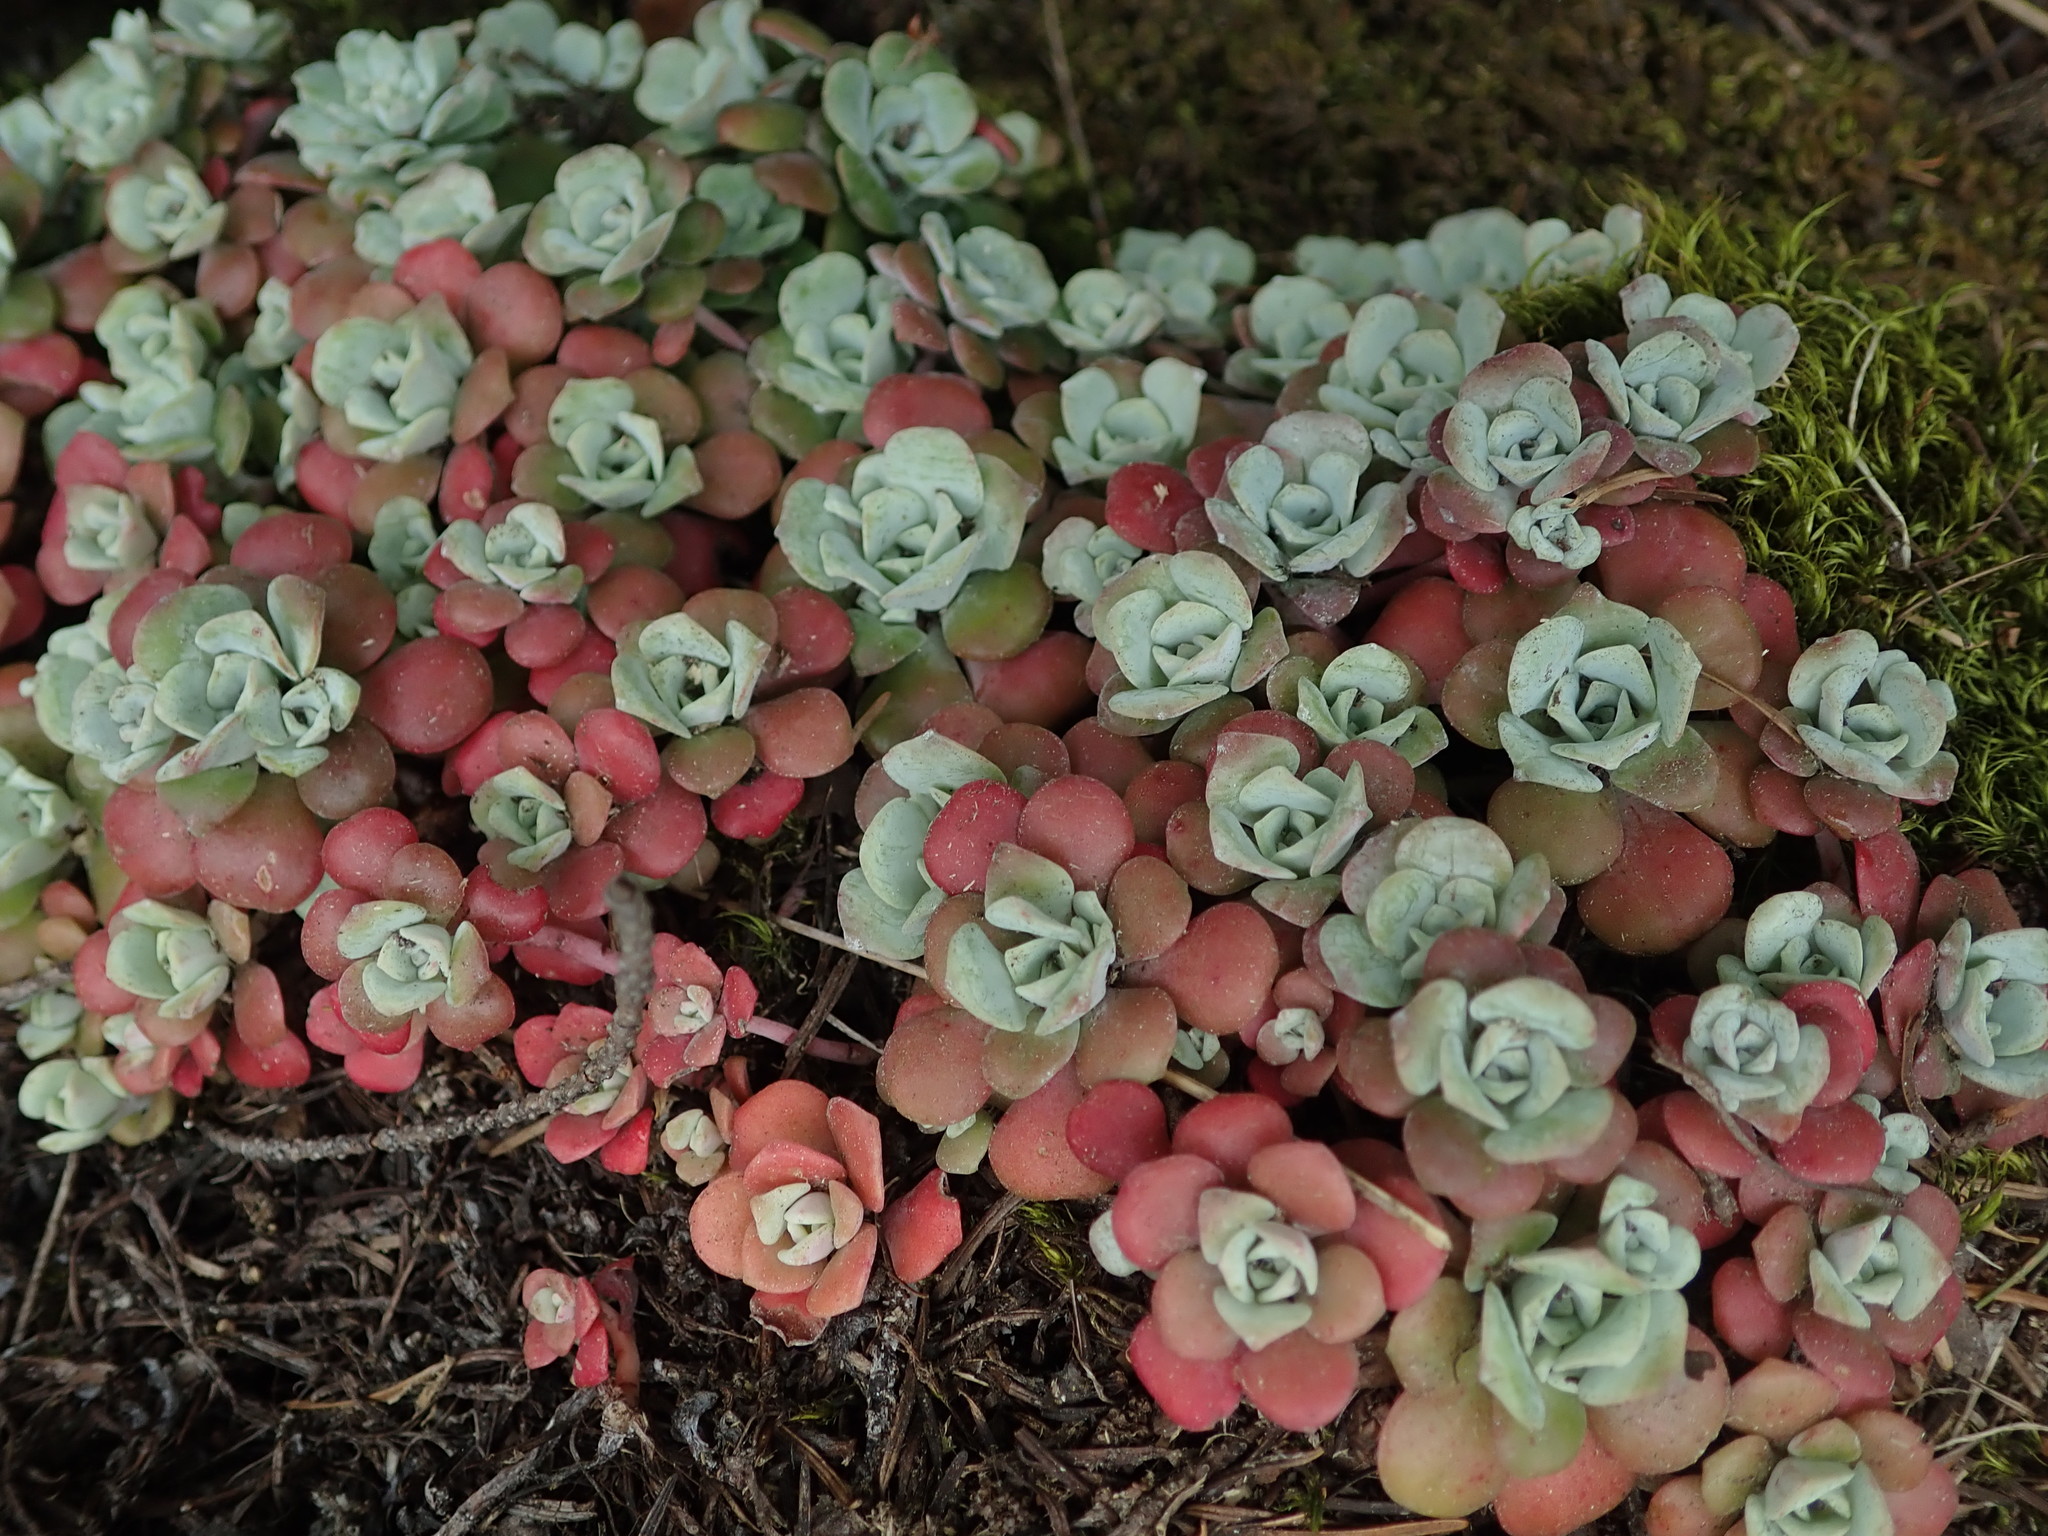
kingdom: Plantae
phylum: Tracheophyta
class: Magnoliopsida
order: Saxifragales
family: Crassulaceae
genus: Sedum
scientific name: Sedum spathulifolium
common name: Colorado stonecrop
